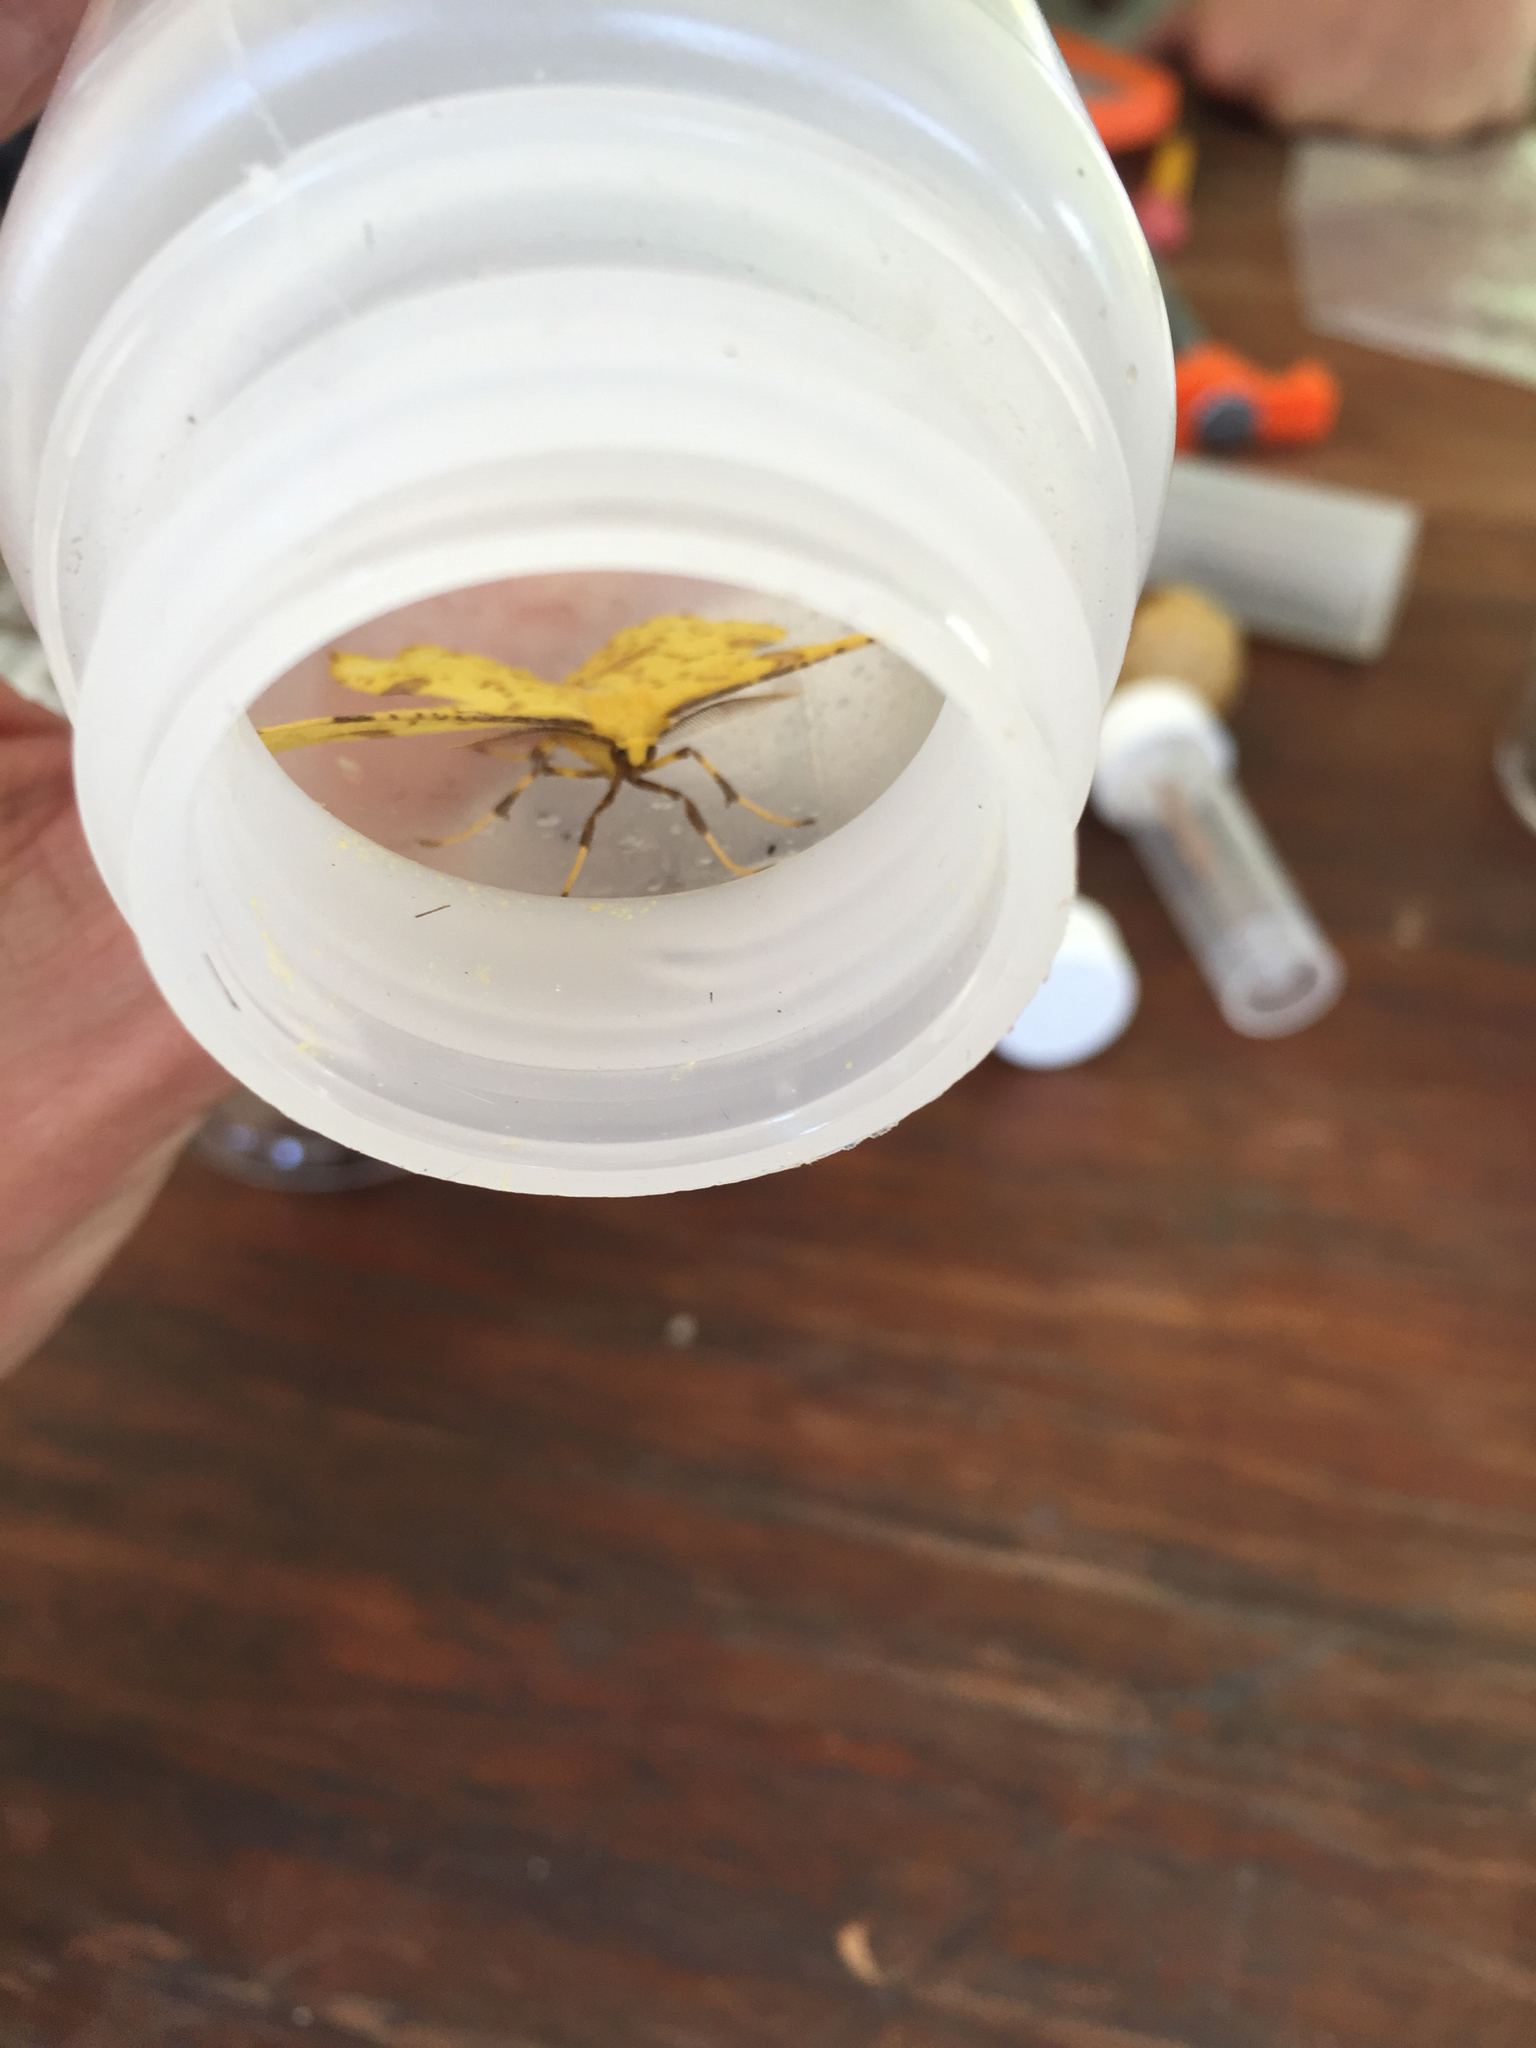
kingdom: Animalia
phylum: Arthropoda
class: Insecta
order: Lepidoptera
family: Geometridae
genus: Xanthotype
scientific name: Xanthotype
